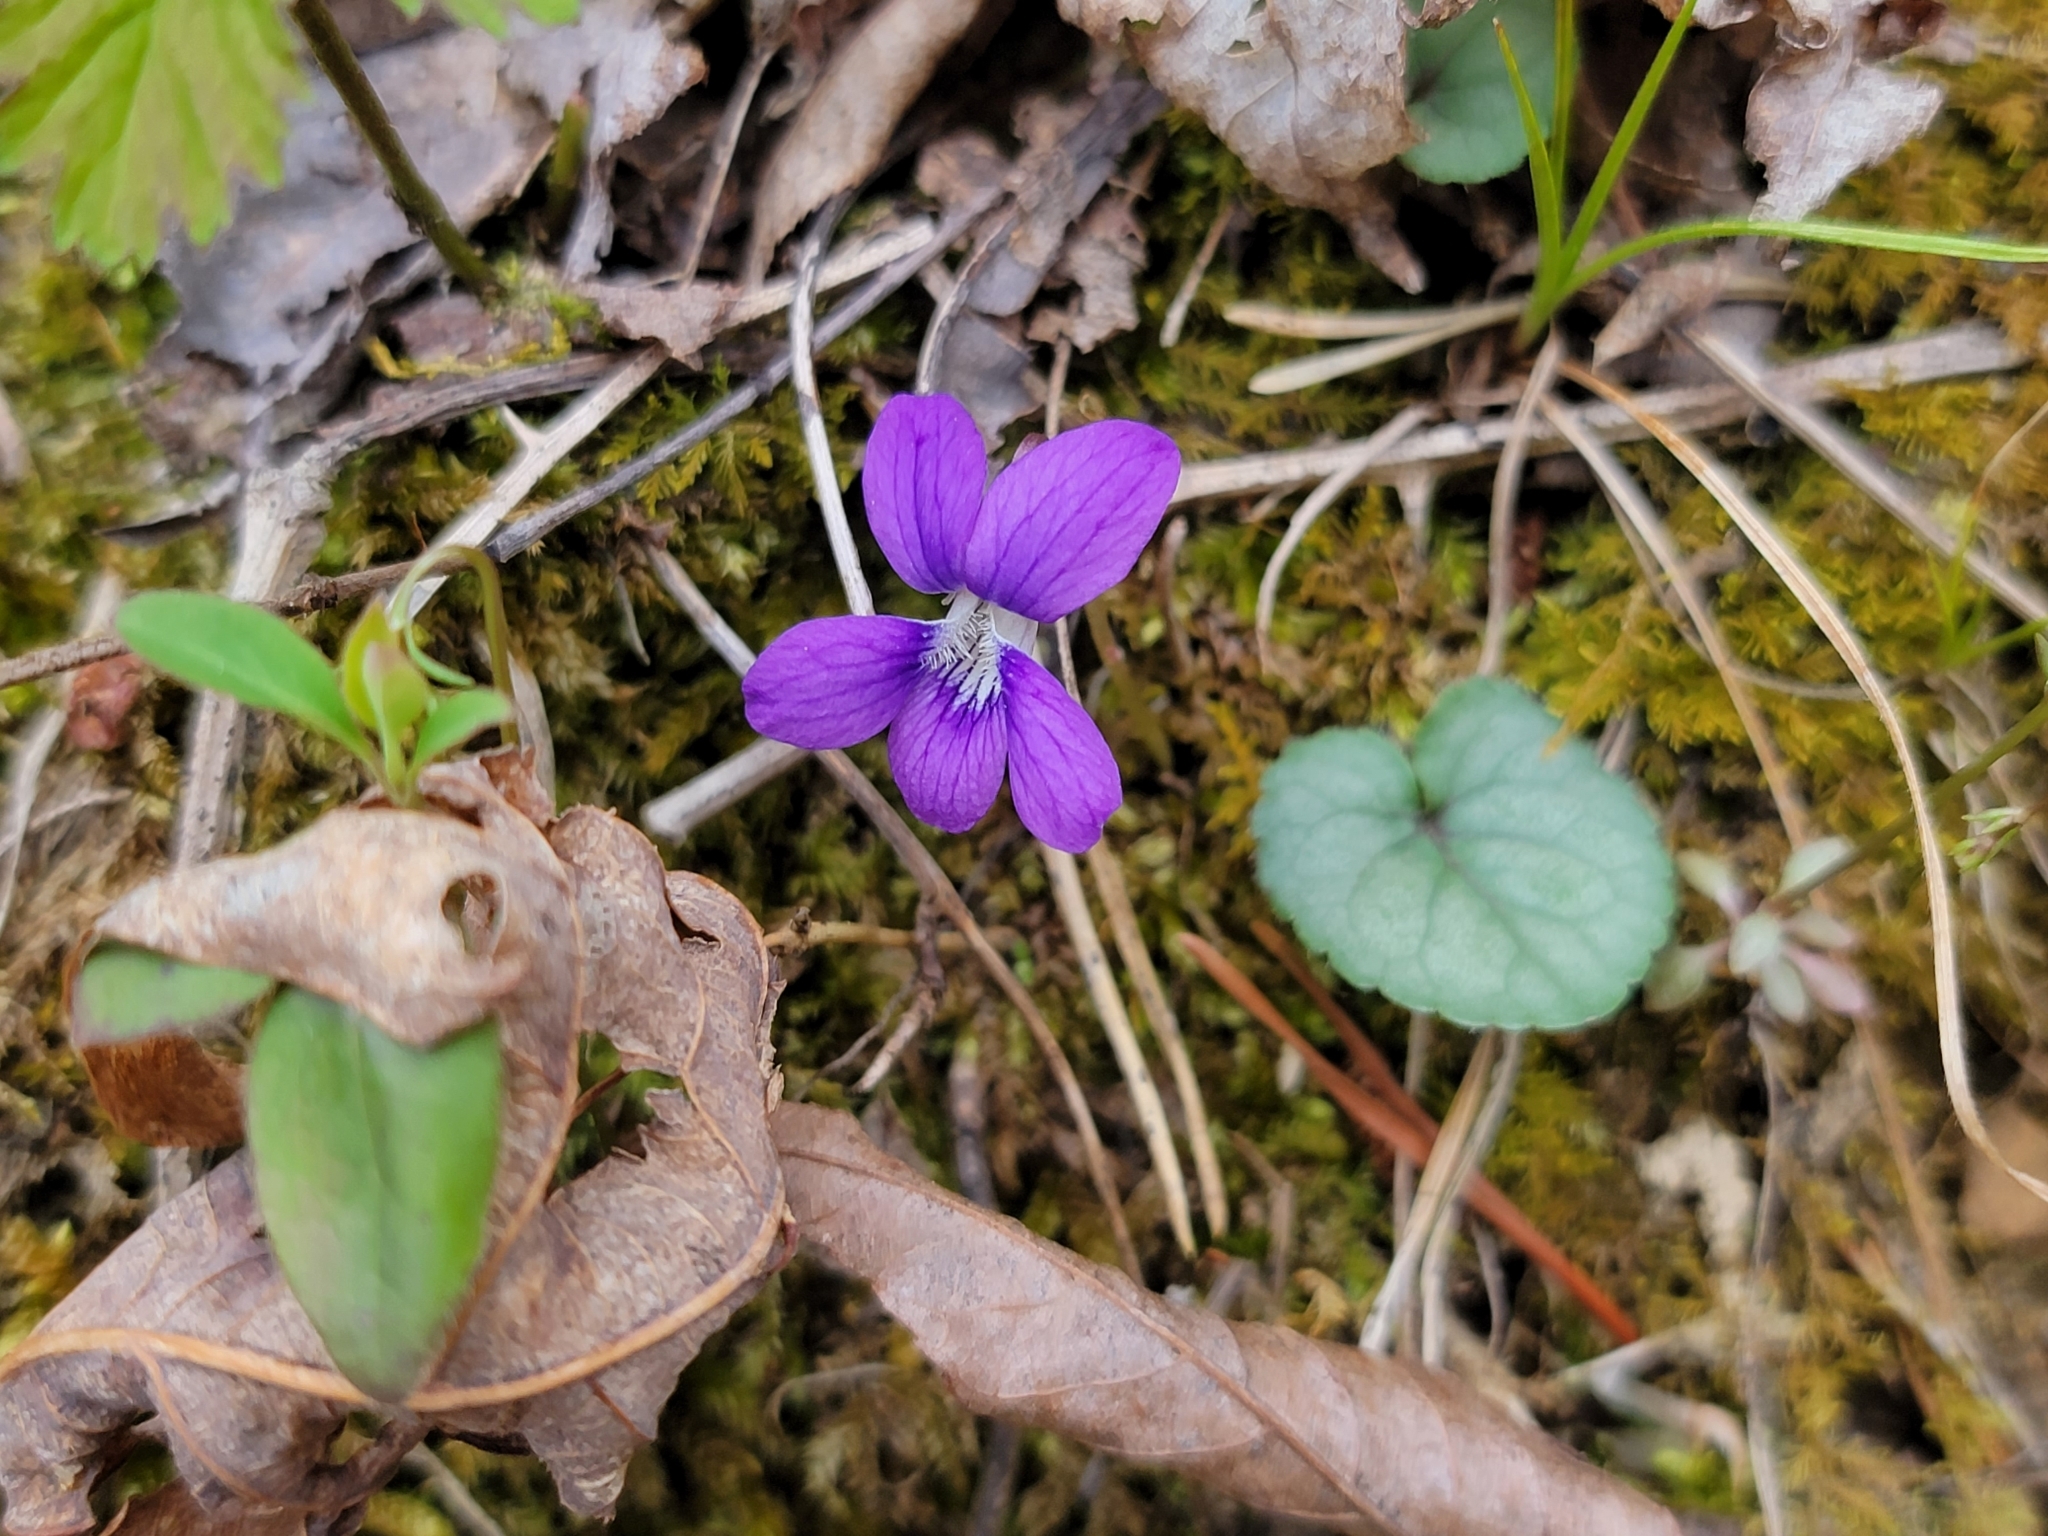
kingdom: Plantae
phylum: Tracheophyta
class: Magnoliopsida
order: Malpighiales
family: Violaceae
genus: Viola
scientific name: Viola hirsutula
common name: Southern wood violet
